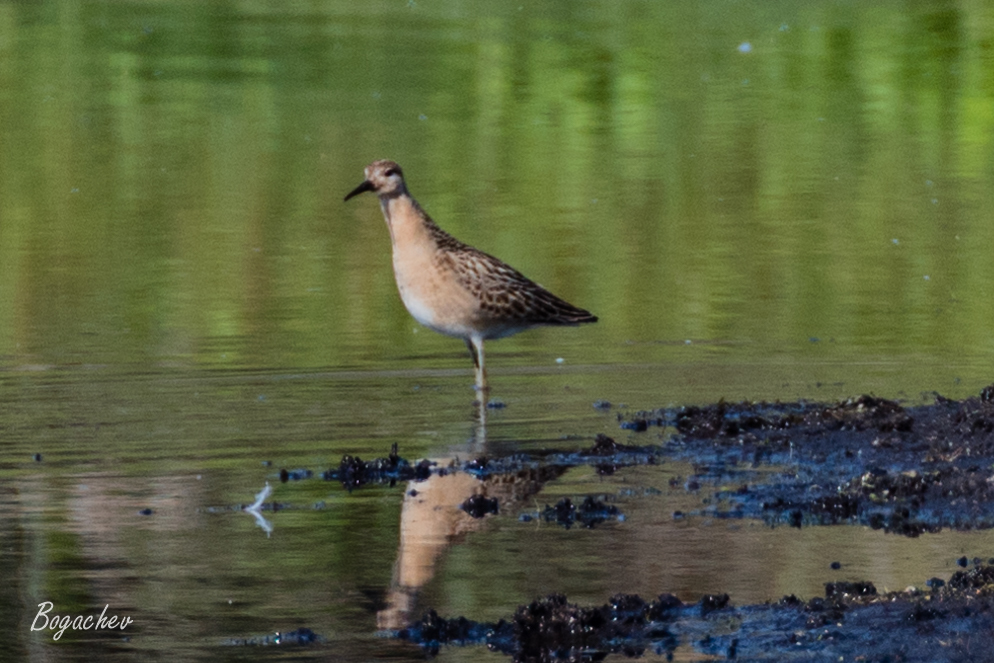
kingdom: Animalia
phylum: Chordata
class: Aves
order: Charadriiformes
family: Scolopacidae
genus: Calidris
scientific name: Calidris pugnax
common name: Ruff
